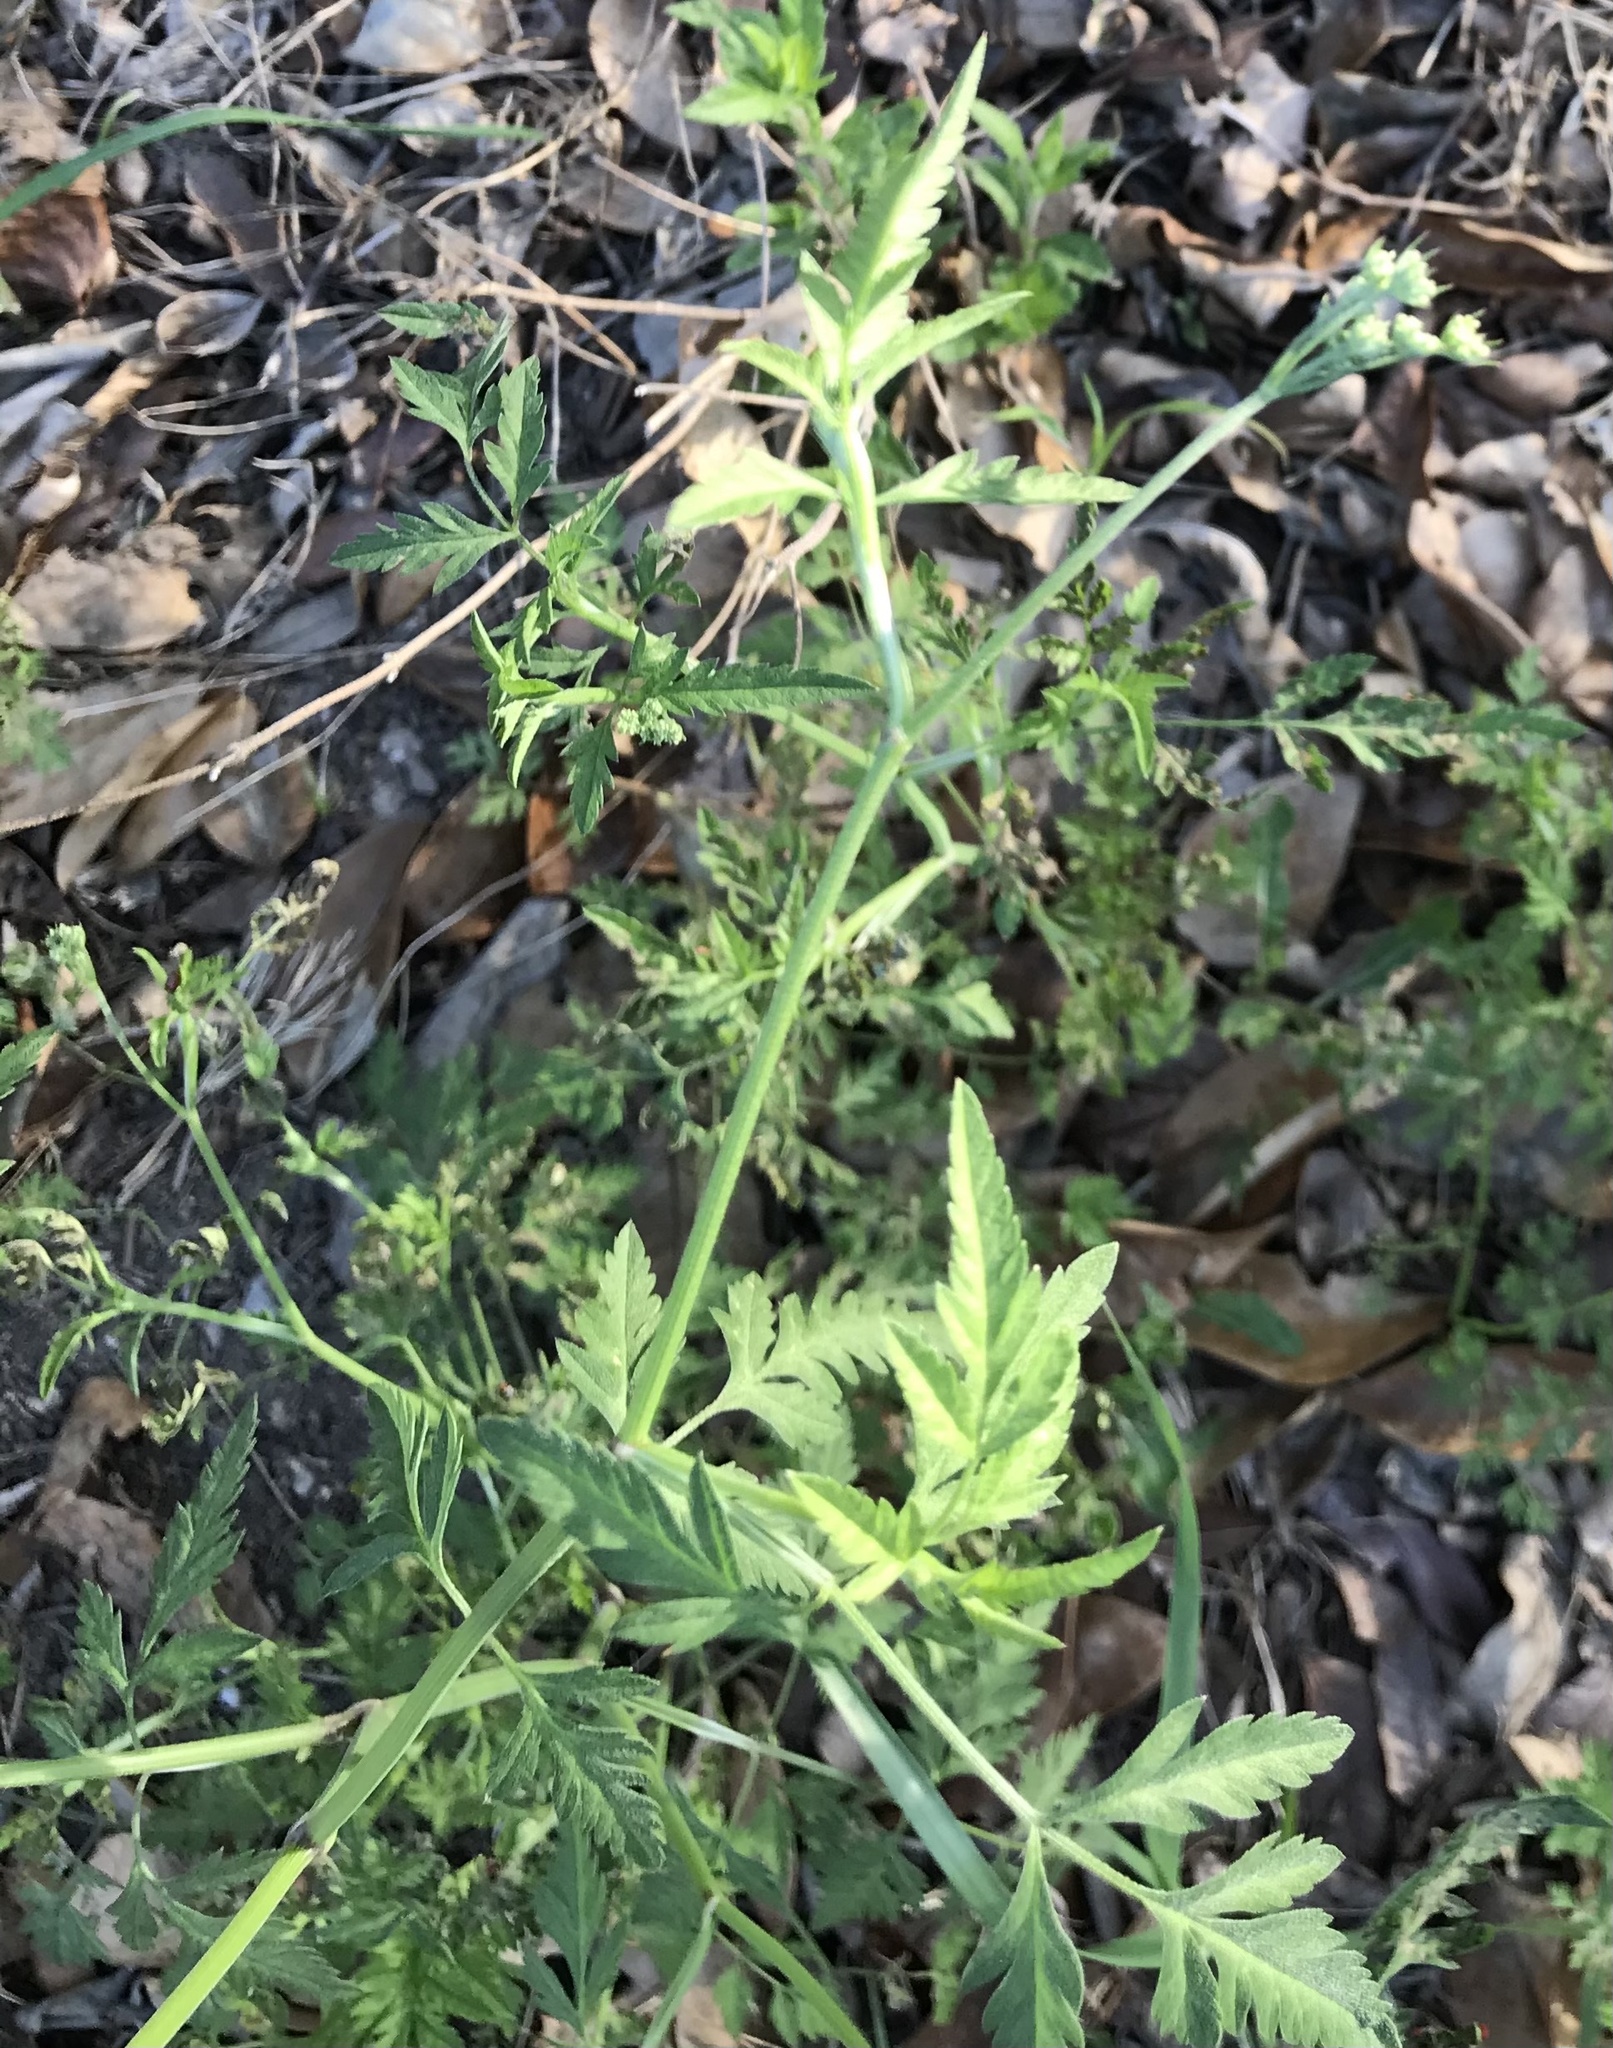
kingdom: Plantae
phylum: Tracheophyta
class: Magnoliopsida
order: Apiales
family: Apiaceae
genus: Torilis
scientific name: Torilis arvensis
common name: Spreading hedge-parsley
